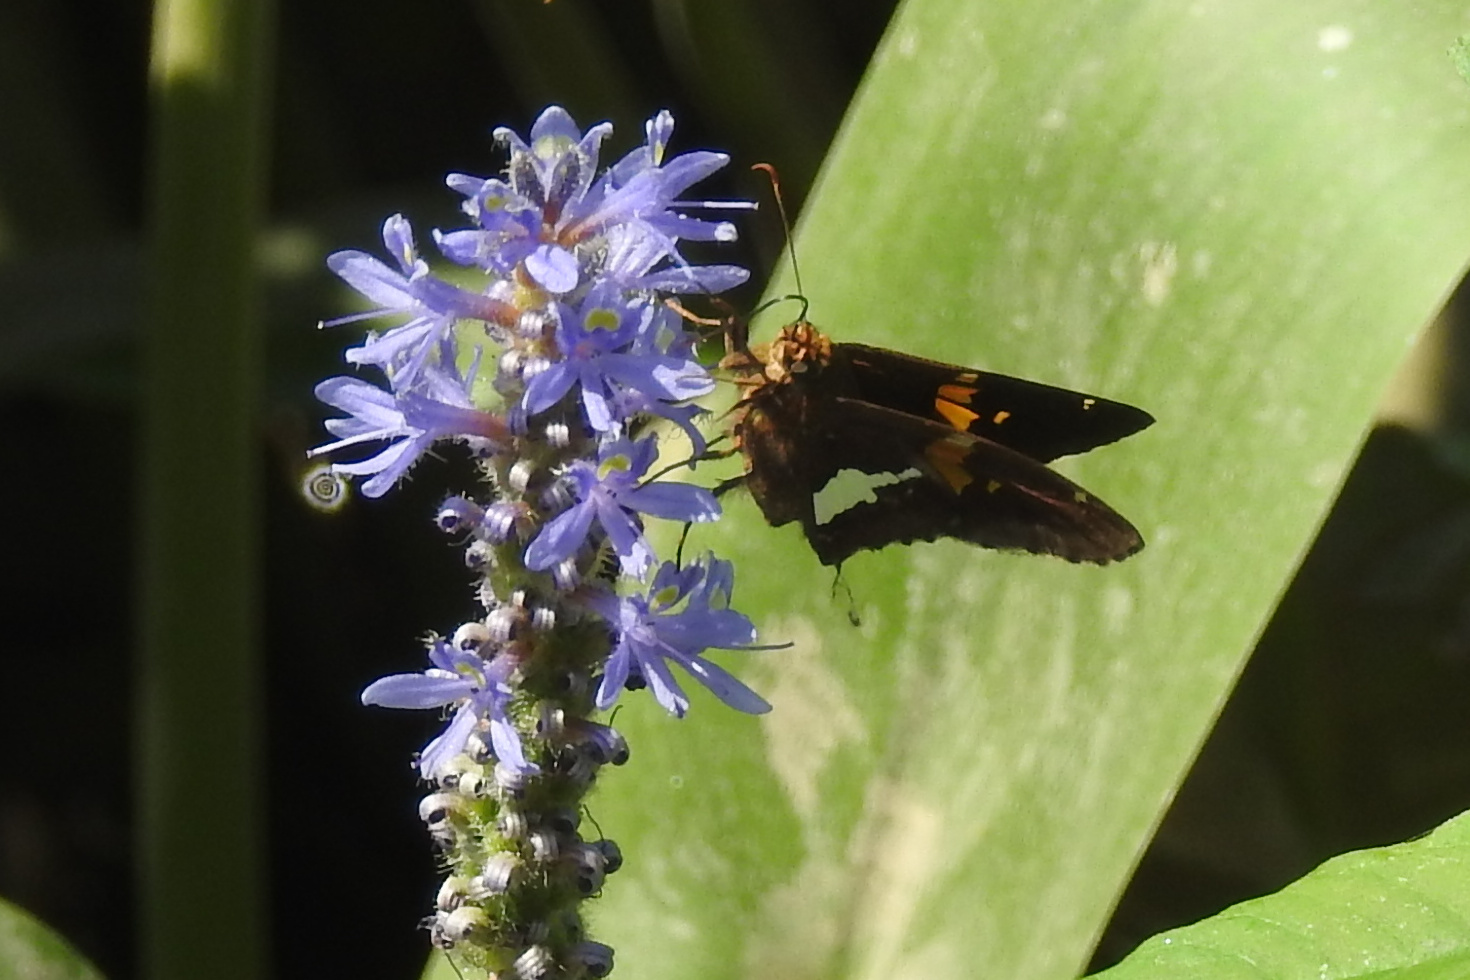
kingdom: Animalia
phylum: Arthropoda
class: Insecta
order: Lepidoptera
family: Hesperiidae
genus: Epargyreus
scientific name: Epargyreus clarus
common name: Silver-spotted skipper
